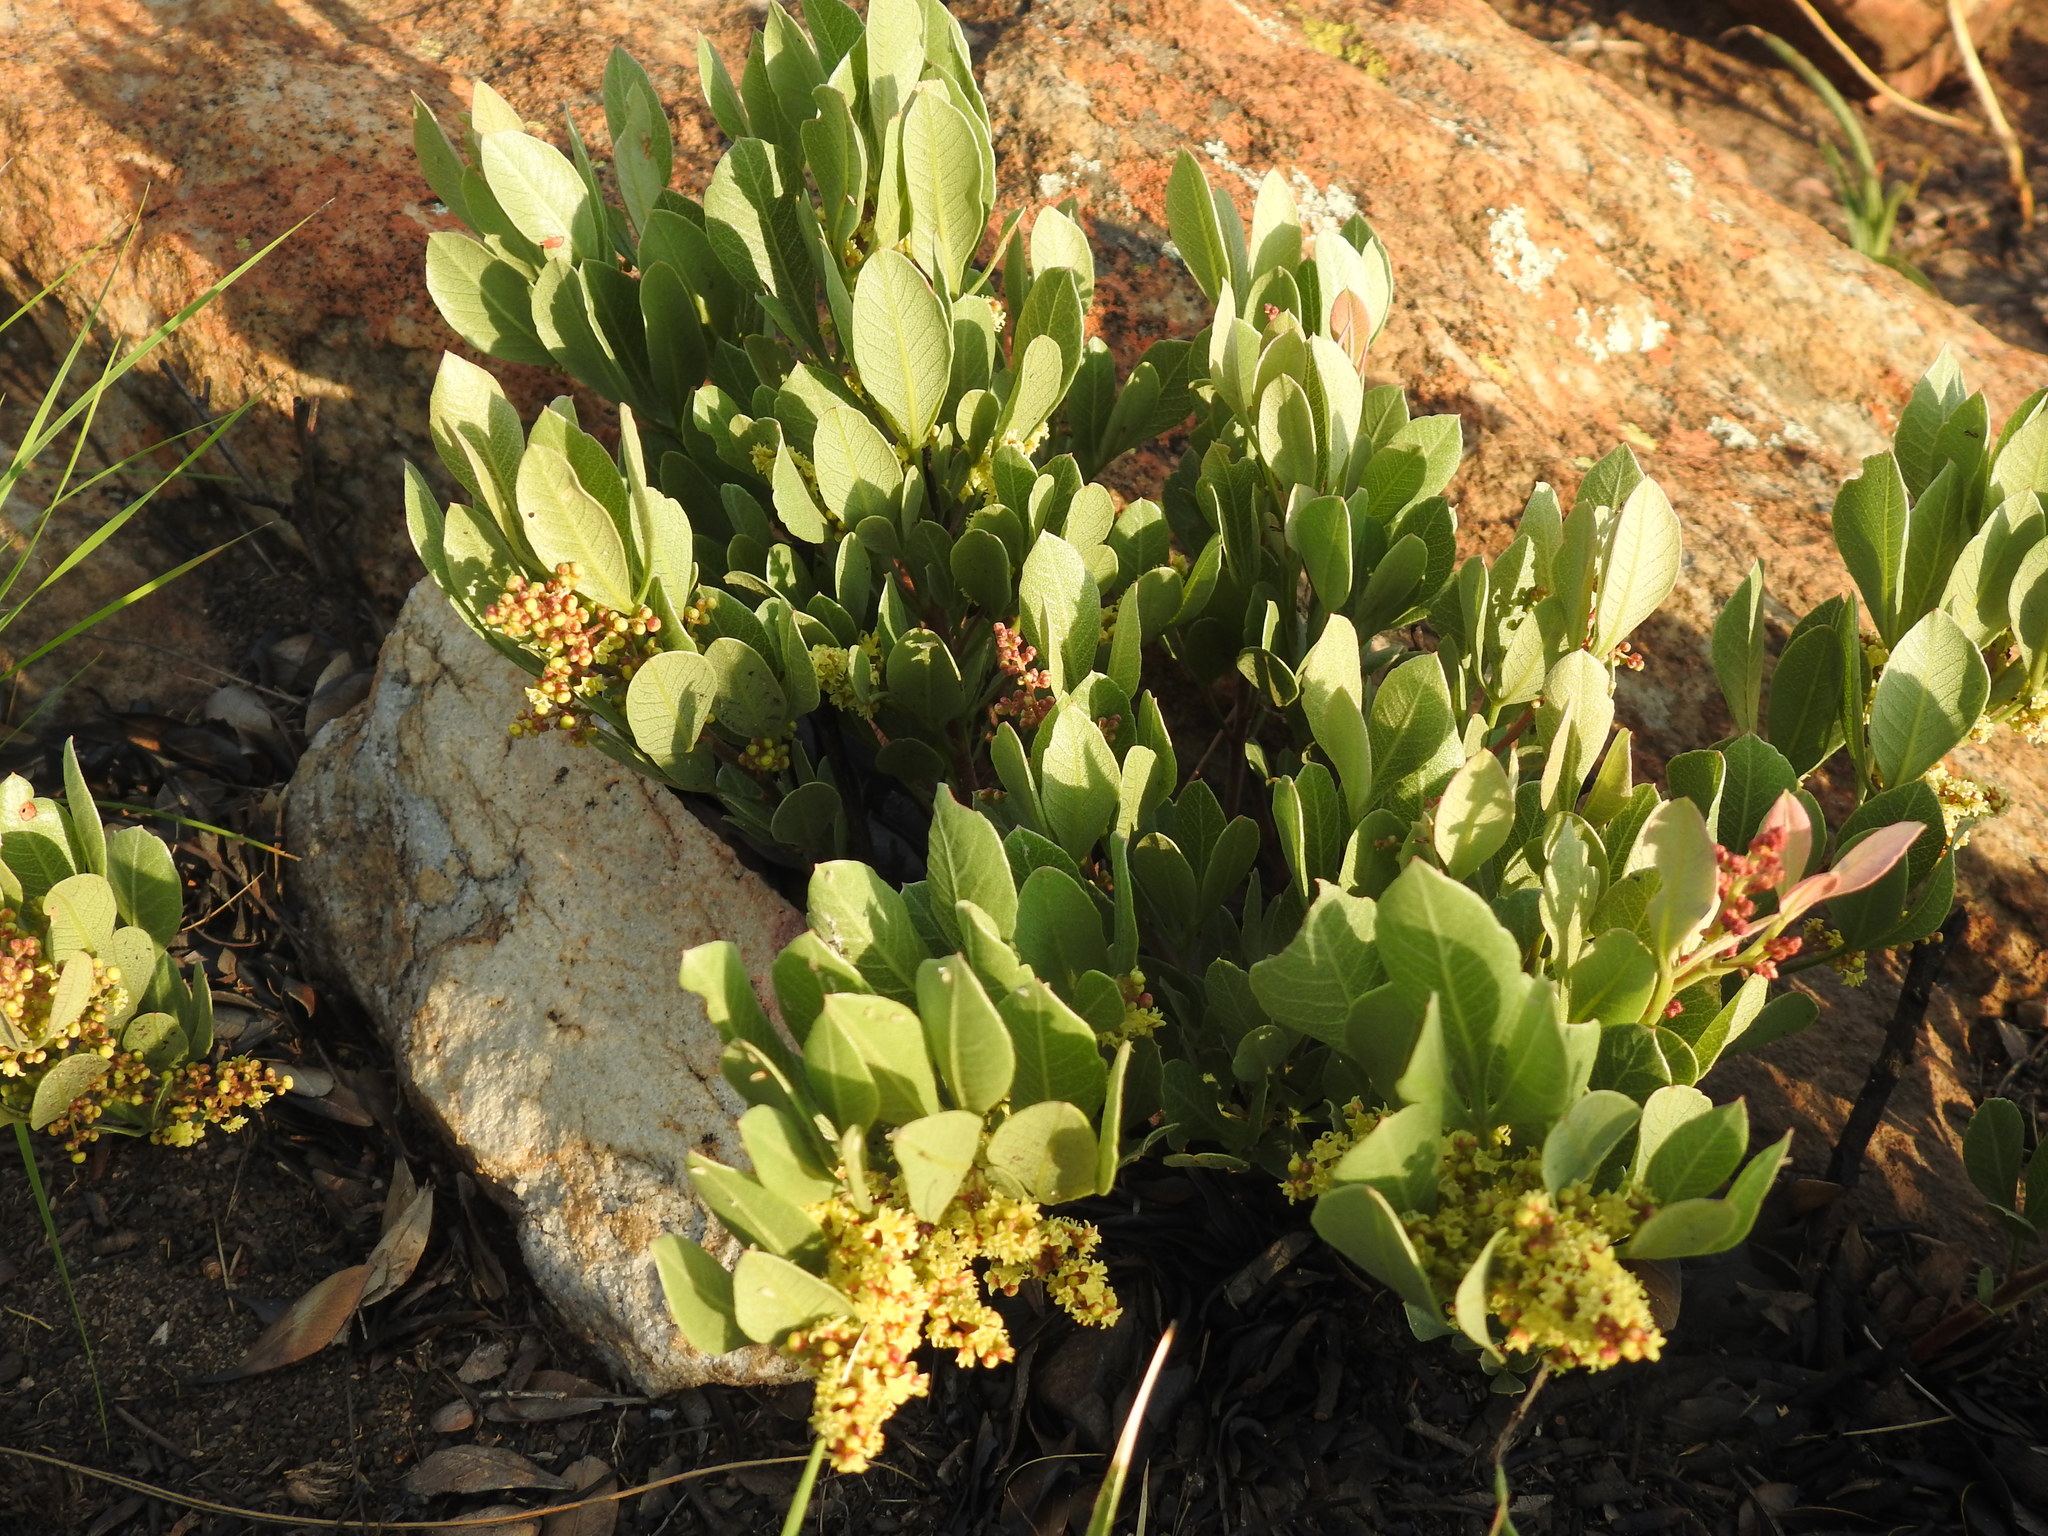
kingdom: Plantae
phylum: Tracheophyta
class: Magnoliopsida
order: Sapindales
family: Anacardiaceae
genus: Searsia
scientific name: Searsia magalismontana
